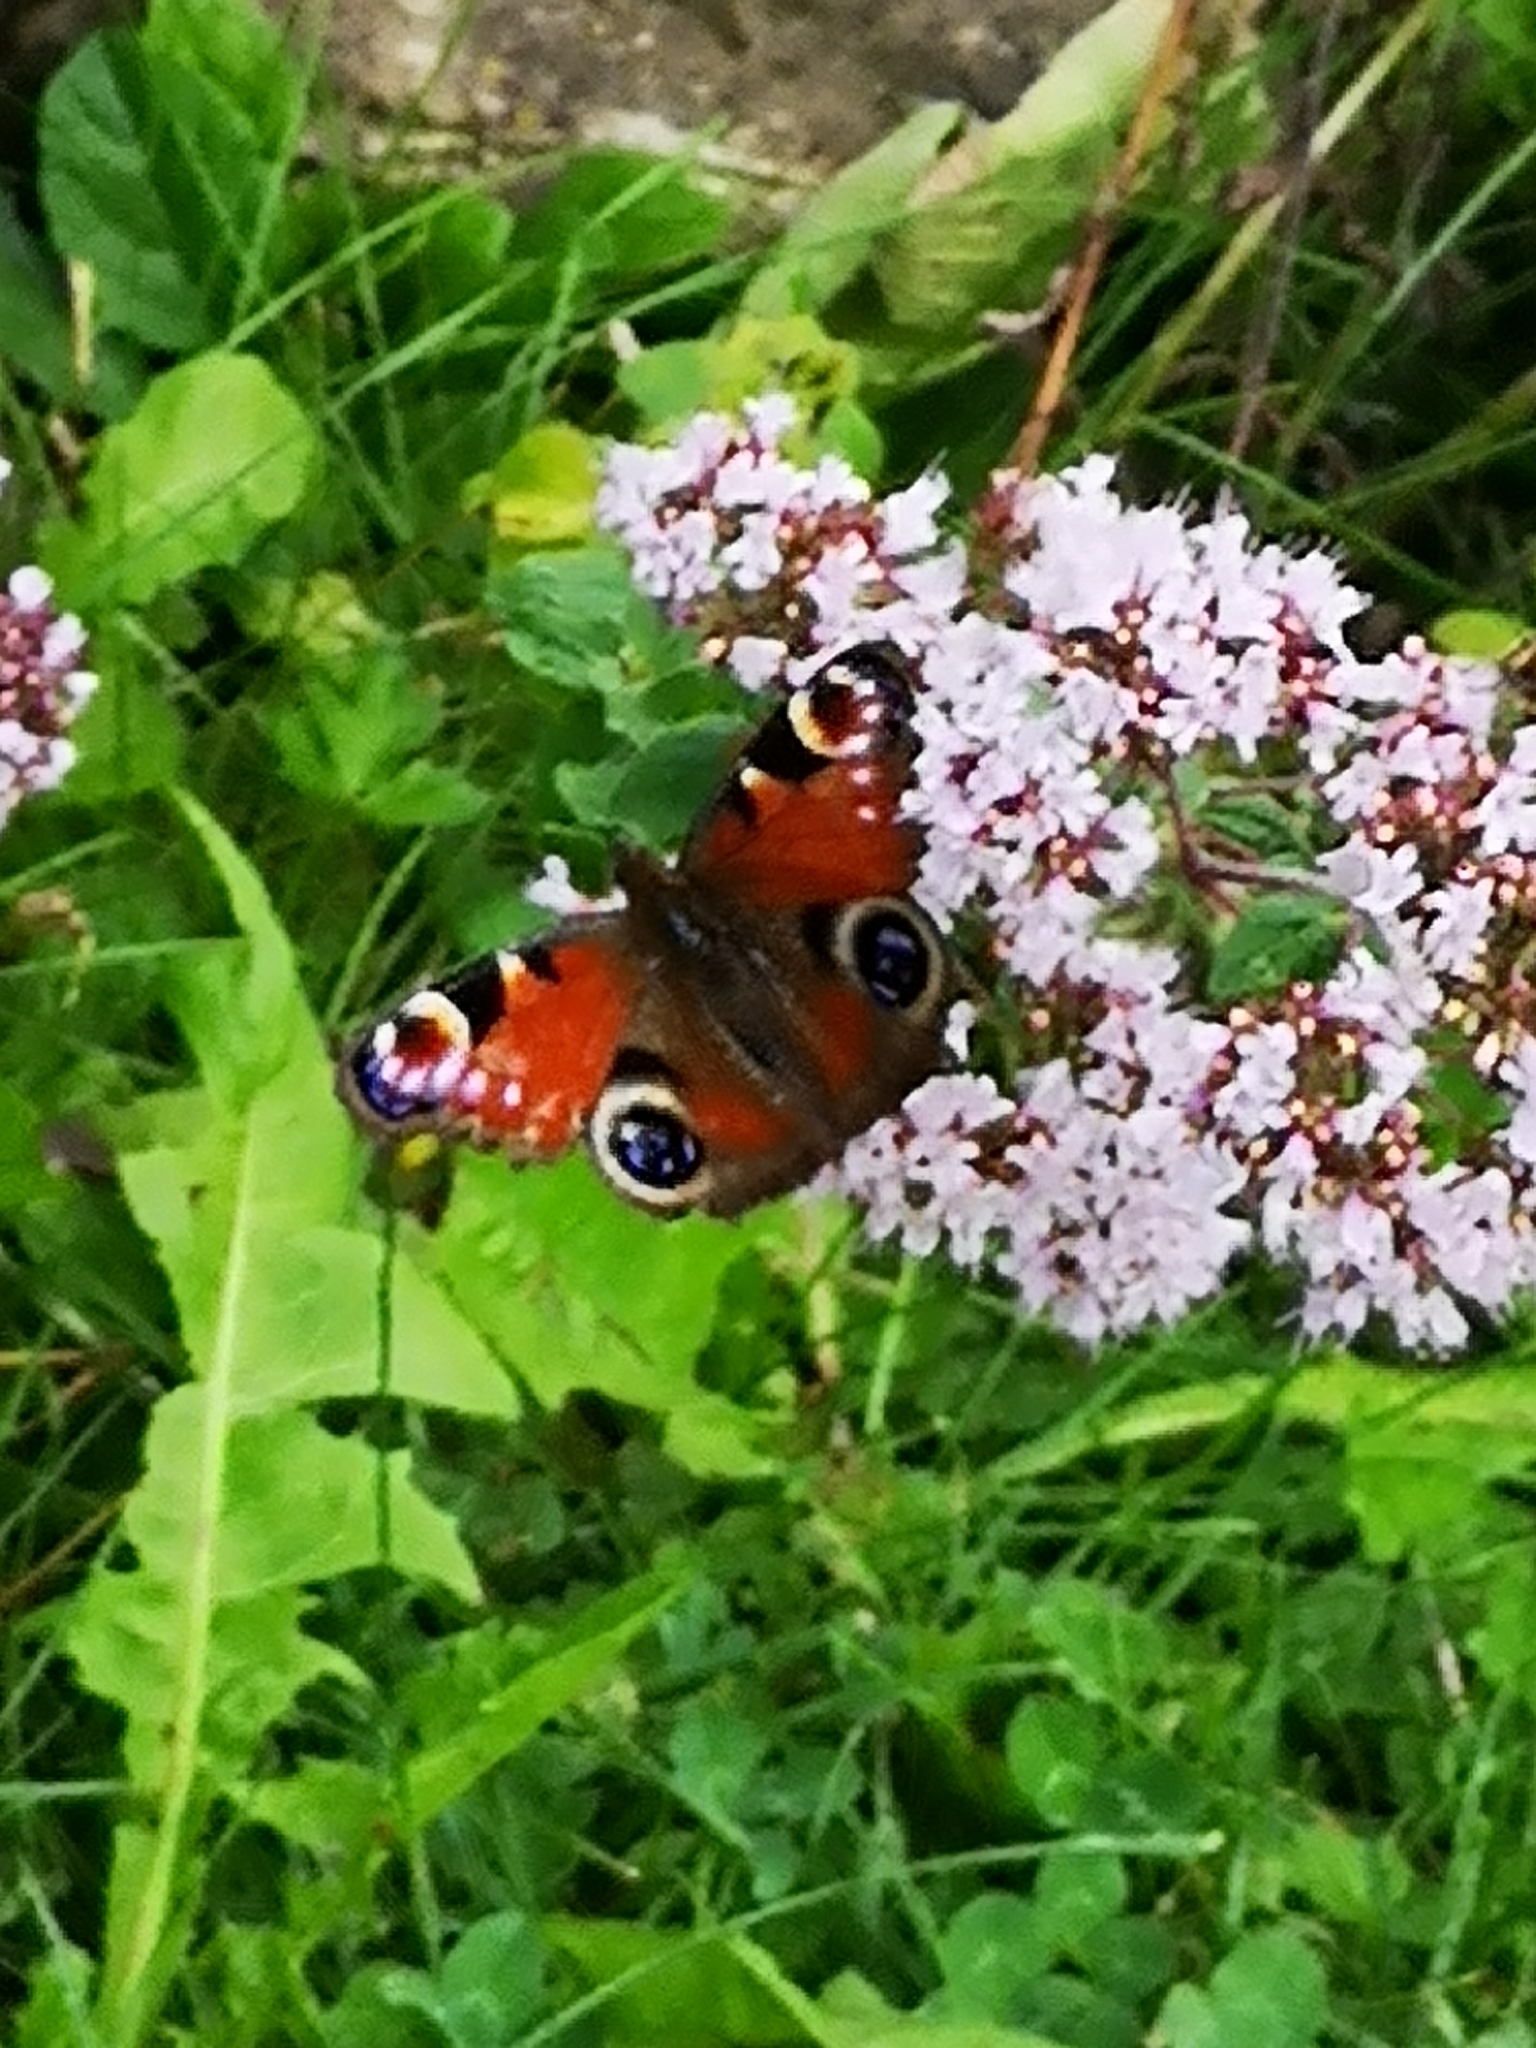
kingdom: Animalia
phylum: Arthropoda
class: Insecta
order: Lepidoptera
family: Nymphalidae
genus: Aglais
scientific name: Aglais io
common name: Peacock
